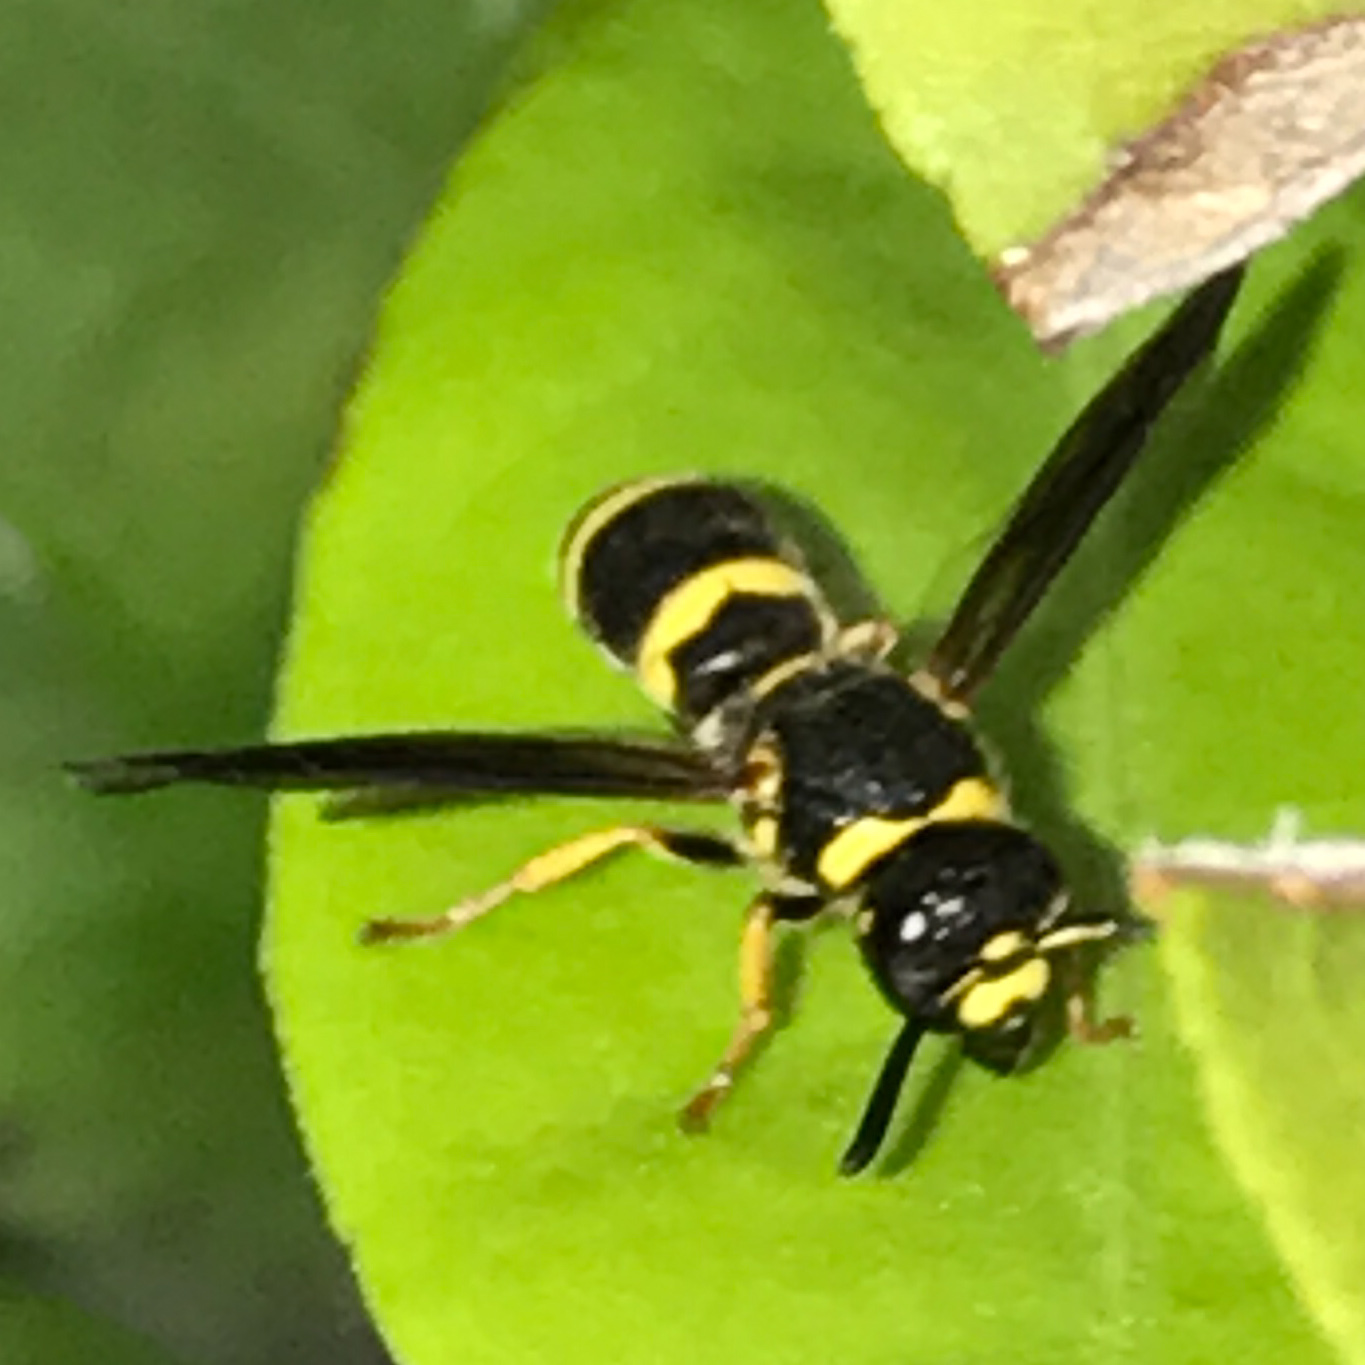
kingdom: Animalia
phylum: Arthropoda
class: Insecta
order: Hymenoptera
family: Eumenidae
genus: Euodynerus
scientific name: Euodynerus
